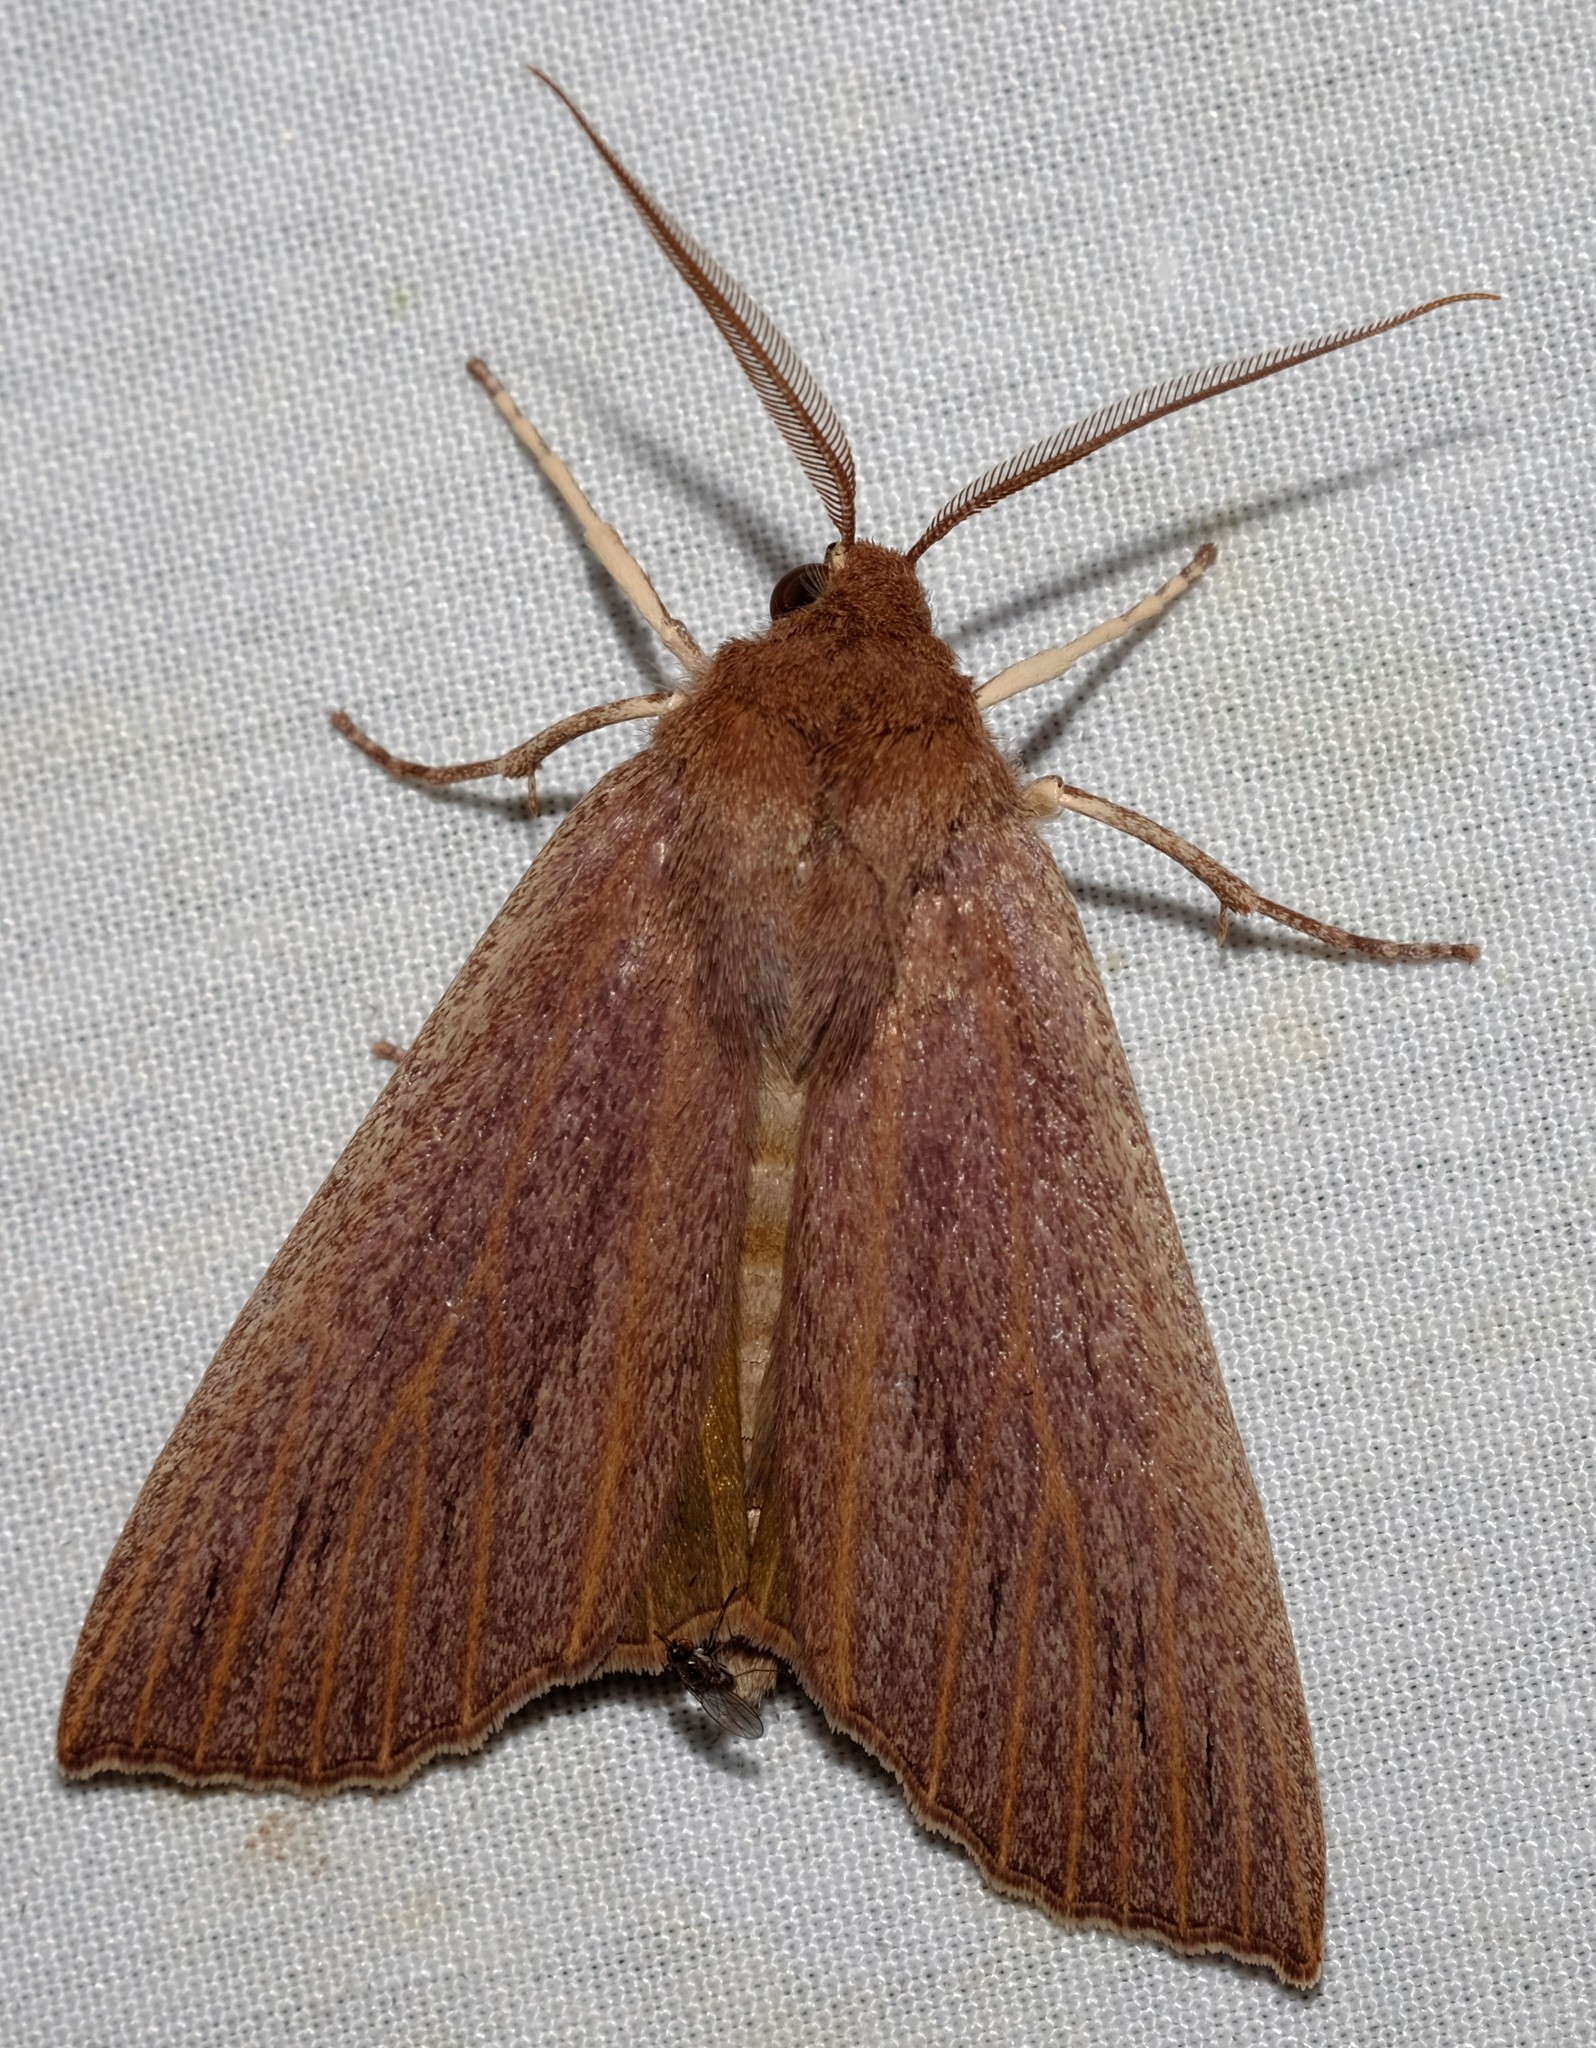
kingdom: Animalia
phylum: Arthropoda
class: Insecta
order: Lepidoptera
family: Geometridae
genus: Palleopa
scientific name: Palleopa innotata
